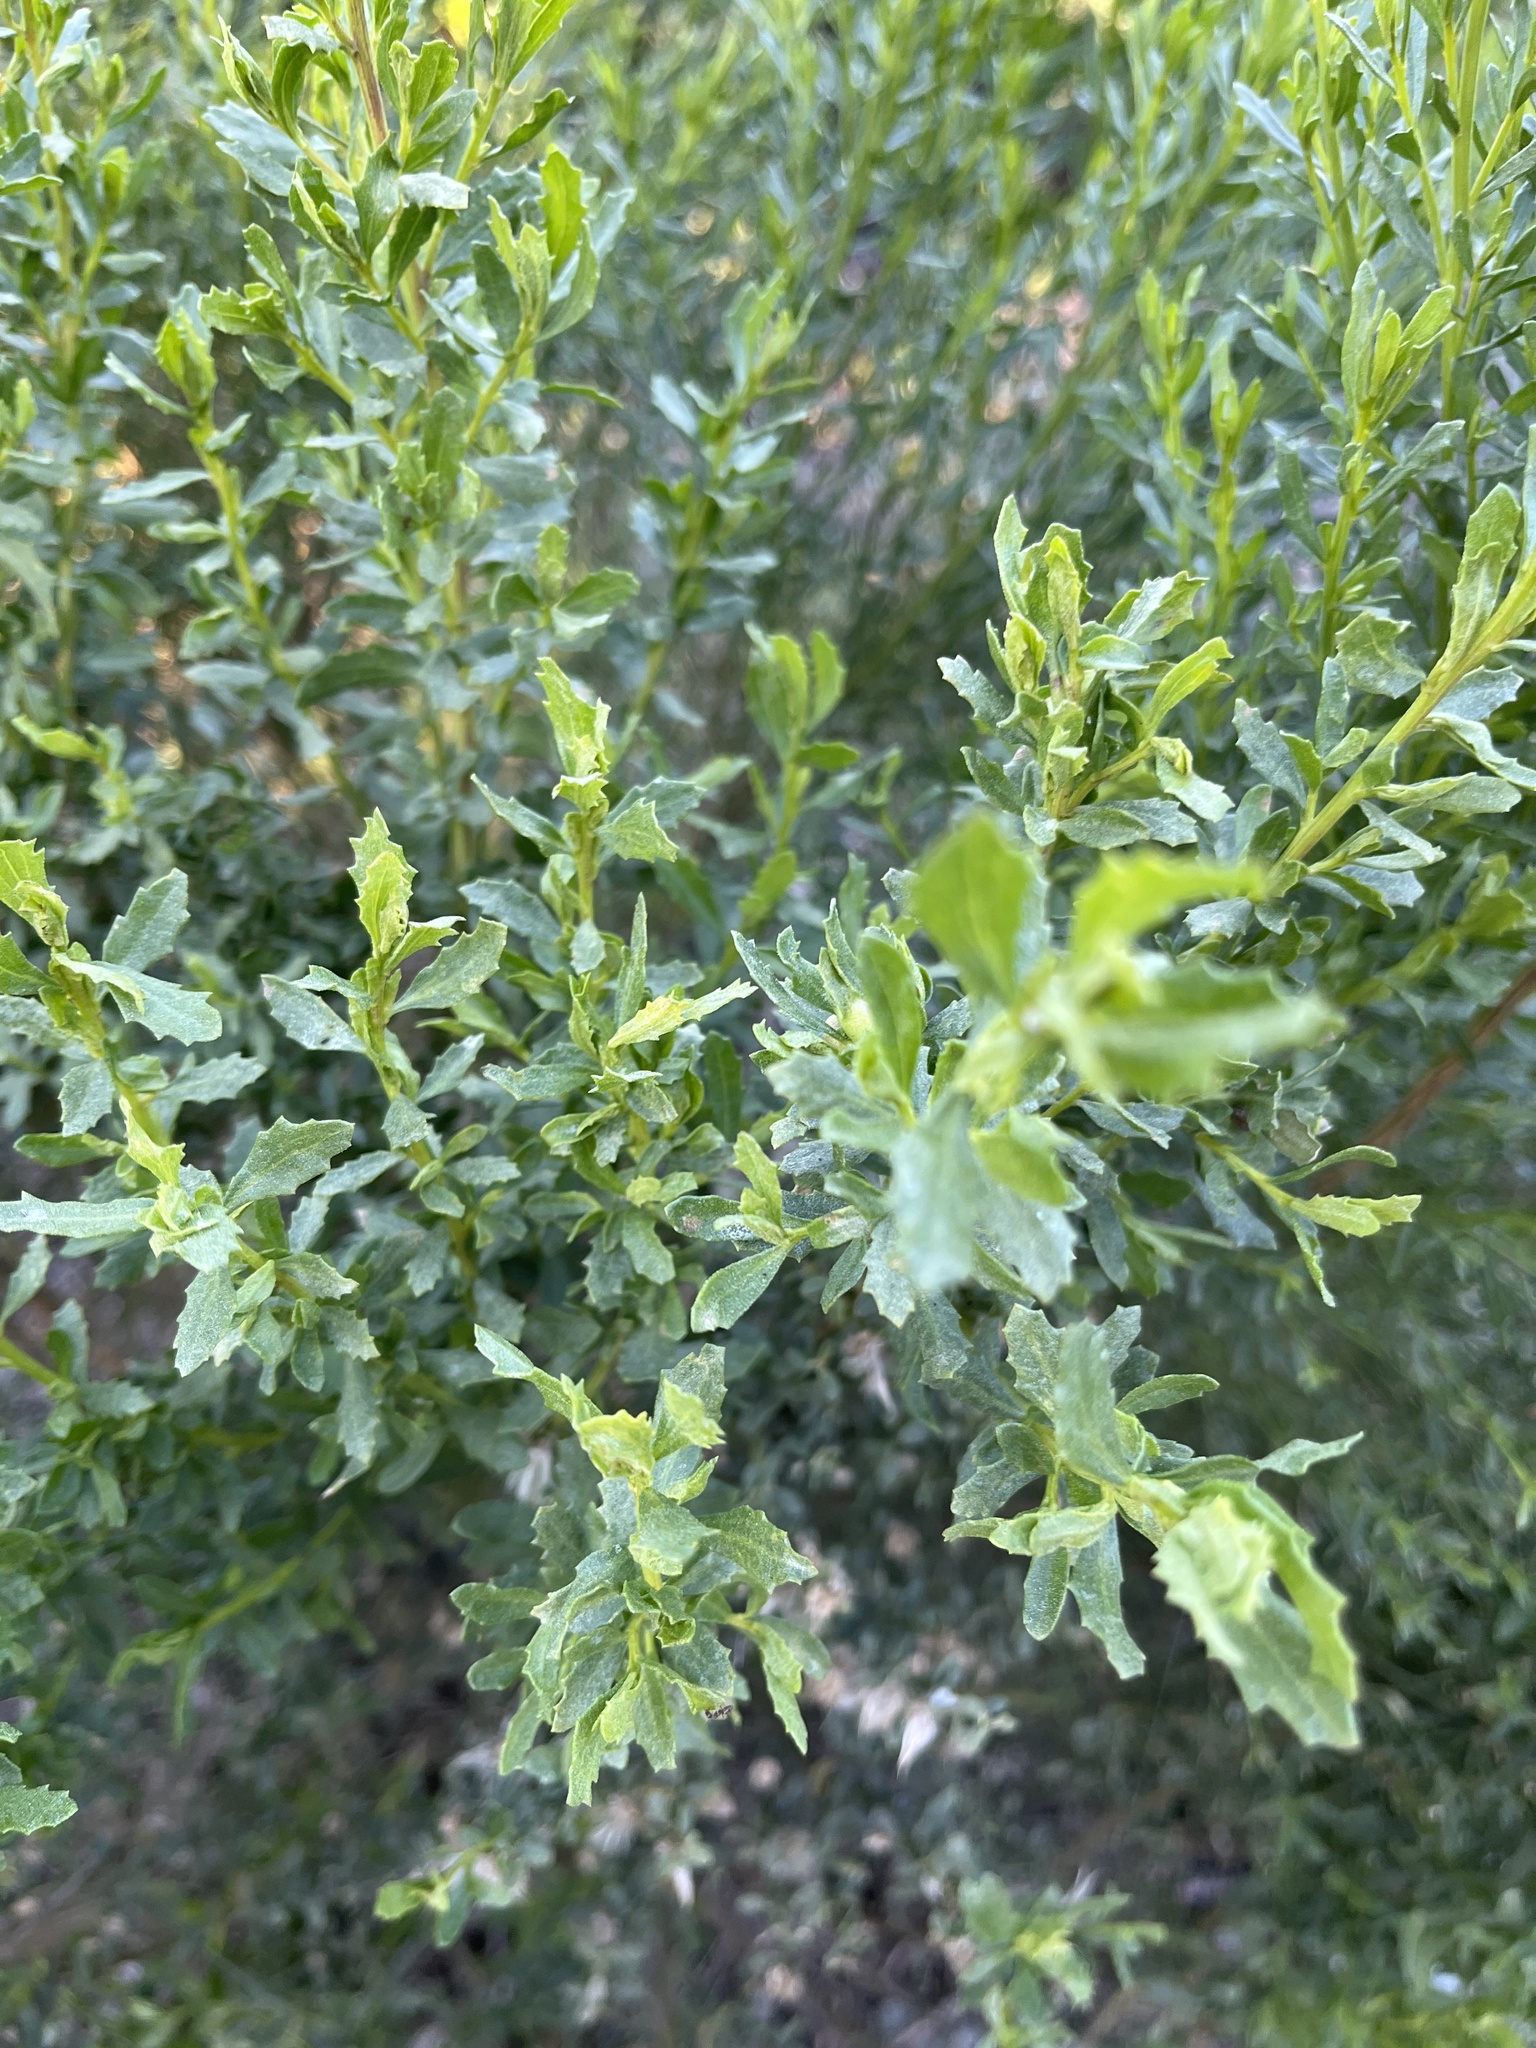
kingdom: Plantae
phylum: Tracheophyta
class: Magnoliopsida
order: Asterales
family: Asteraceae
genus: Baccharis
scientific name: Baccharis pilularis
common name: Coyotebrush
